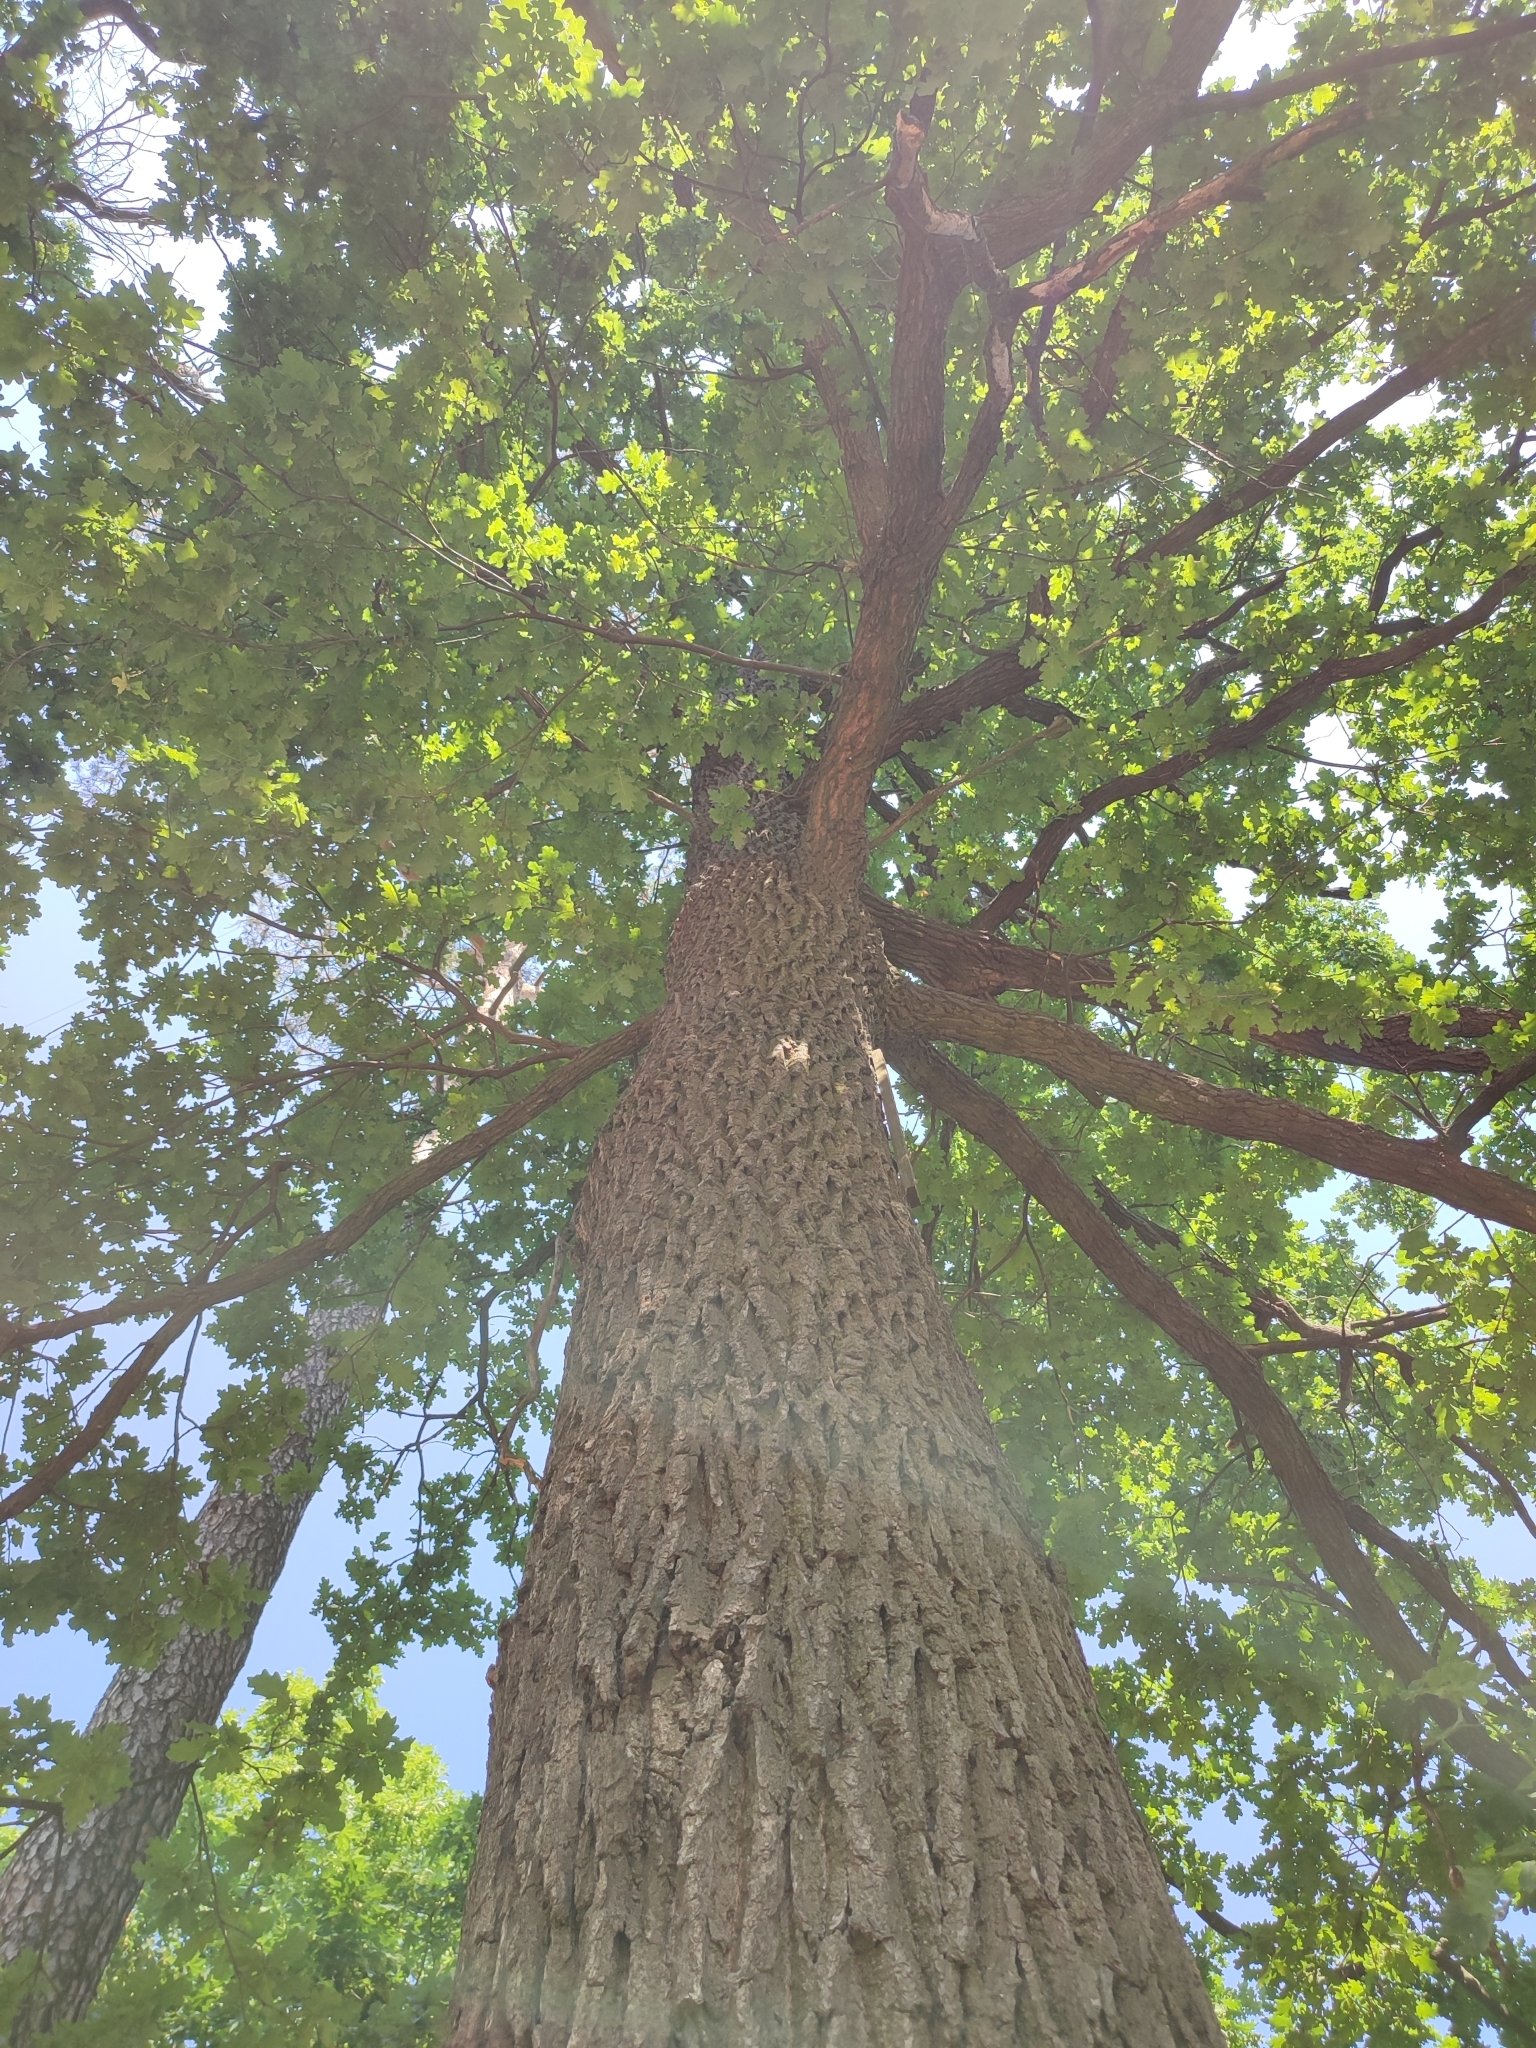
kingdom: Plantae
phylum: Tracheophyta
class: Magnoliopsida
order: Fagales
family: Fagaceae
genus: Quercus
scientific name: Quercus robur
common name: Pedunculate oak
